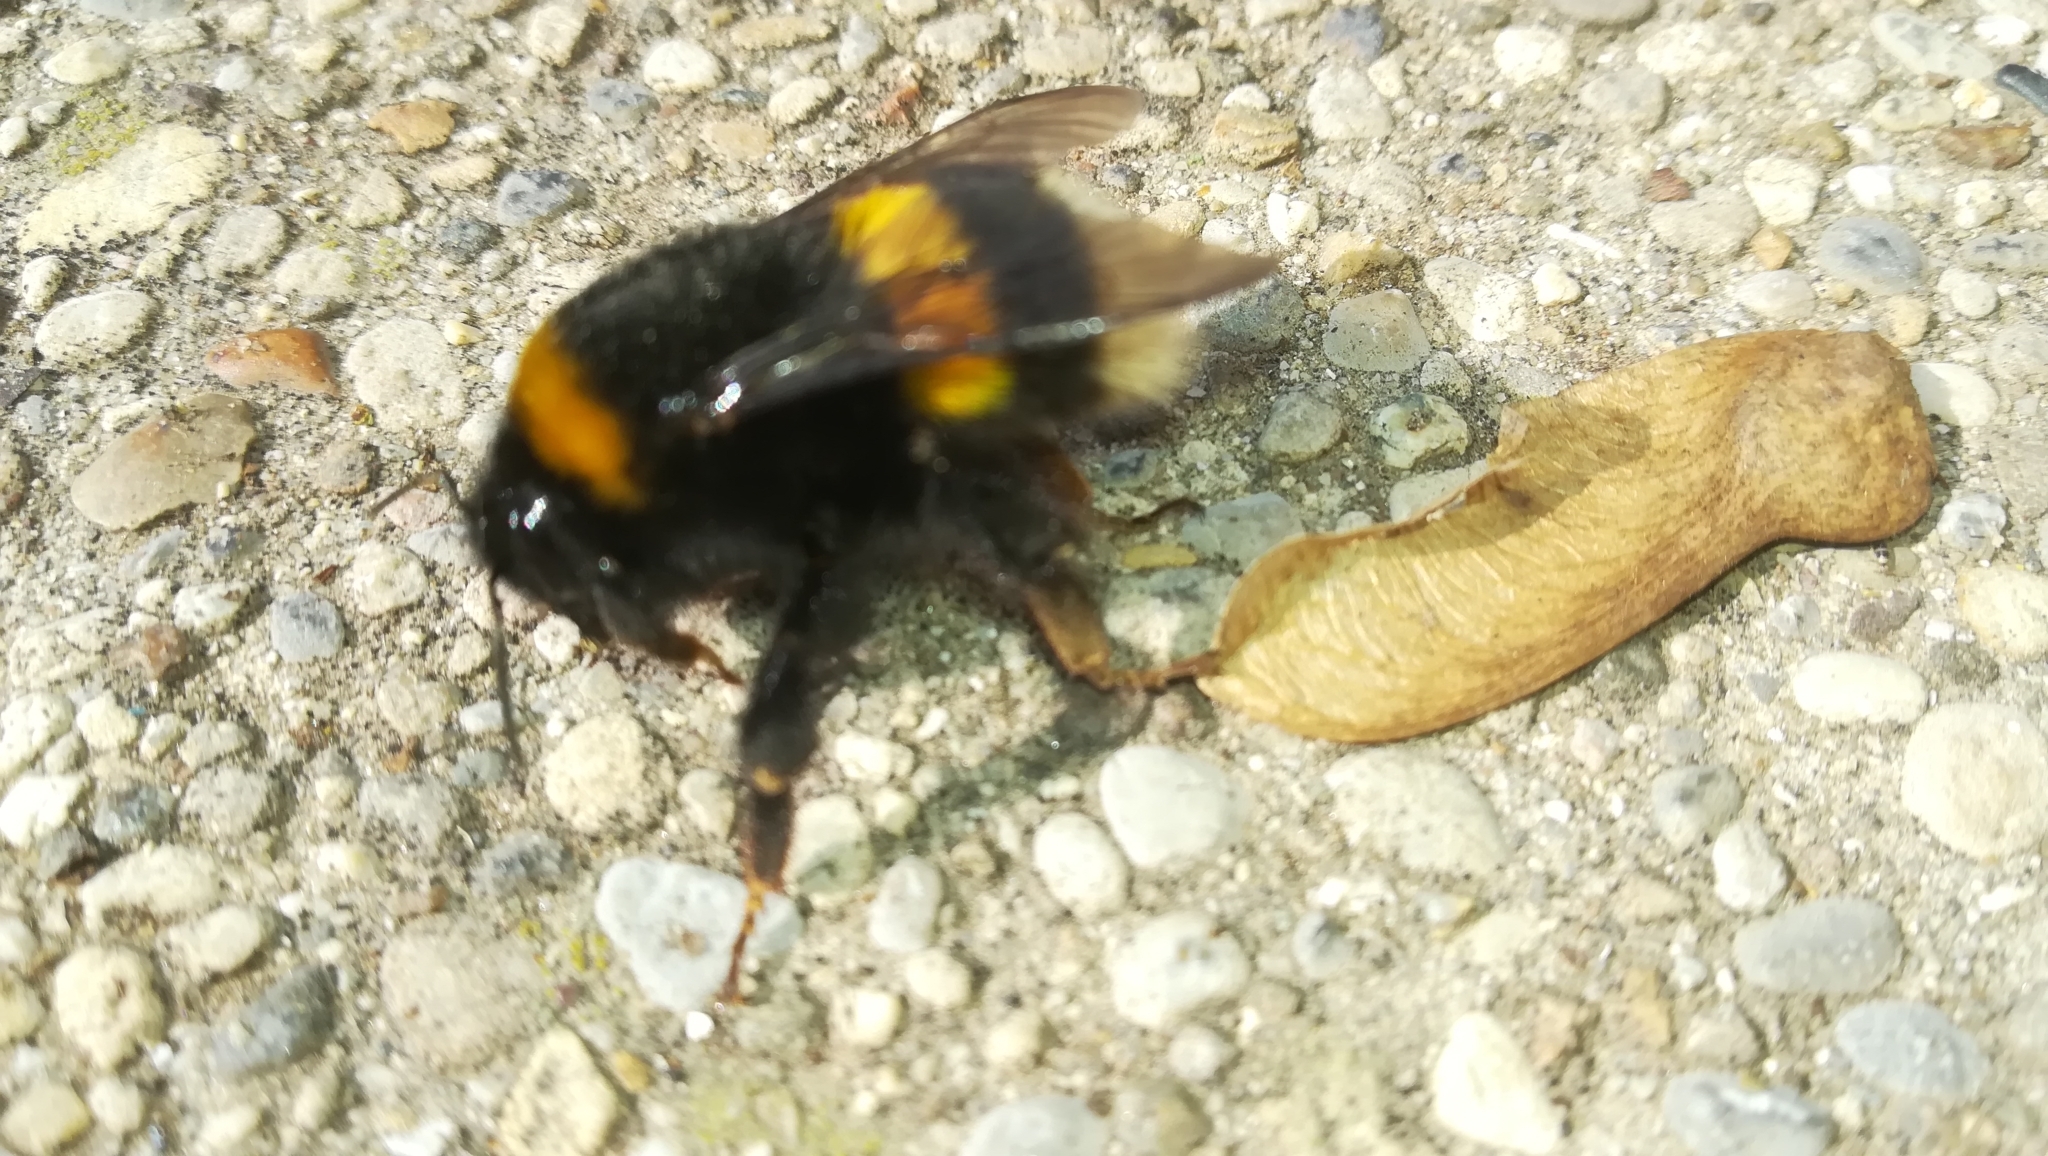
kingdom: Animalia
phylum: Arthropoda
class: Insecta
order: Hymenoptera
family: Apidae
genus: Bombus
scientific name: Bombus terrestris
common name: Buff-tailed bumblebee
